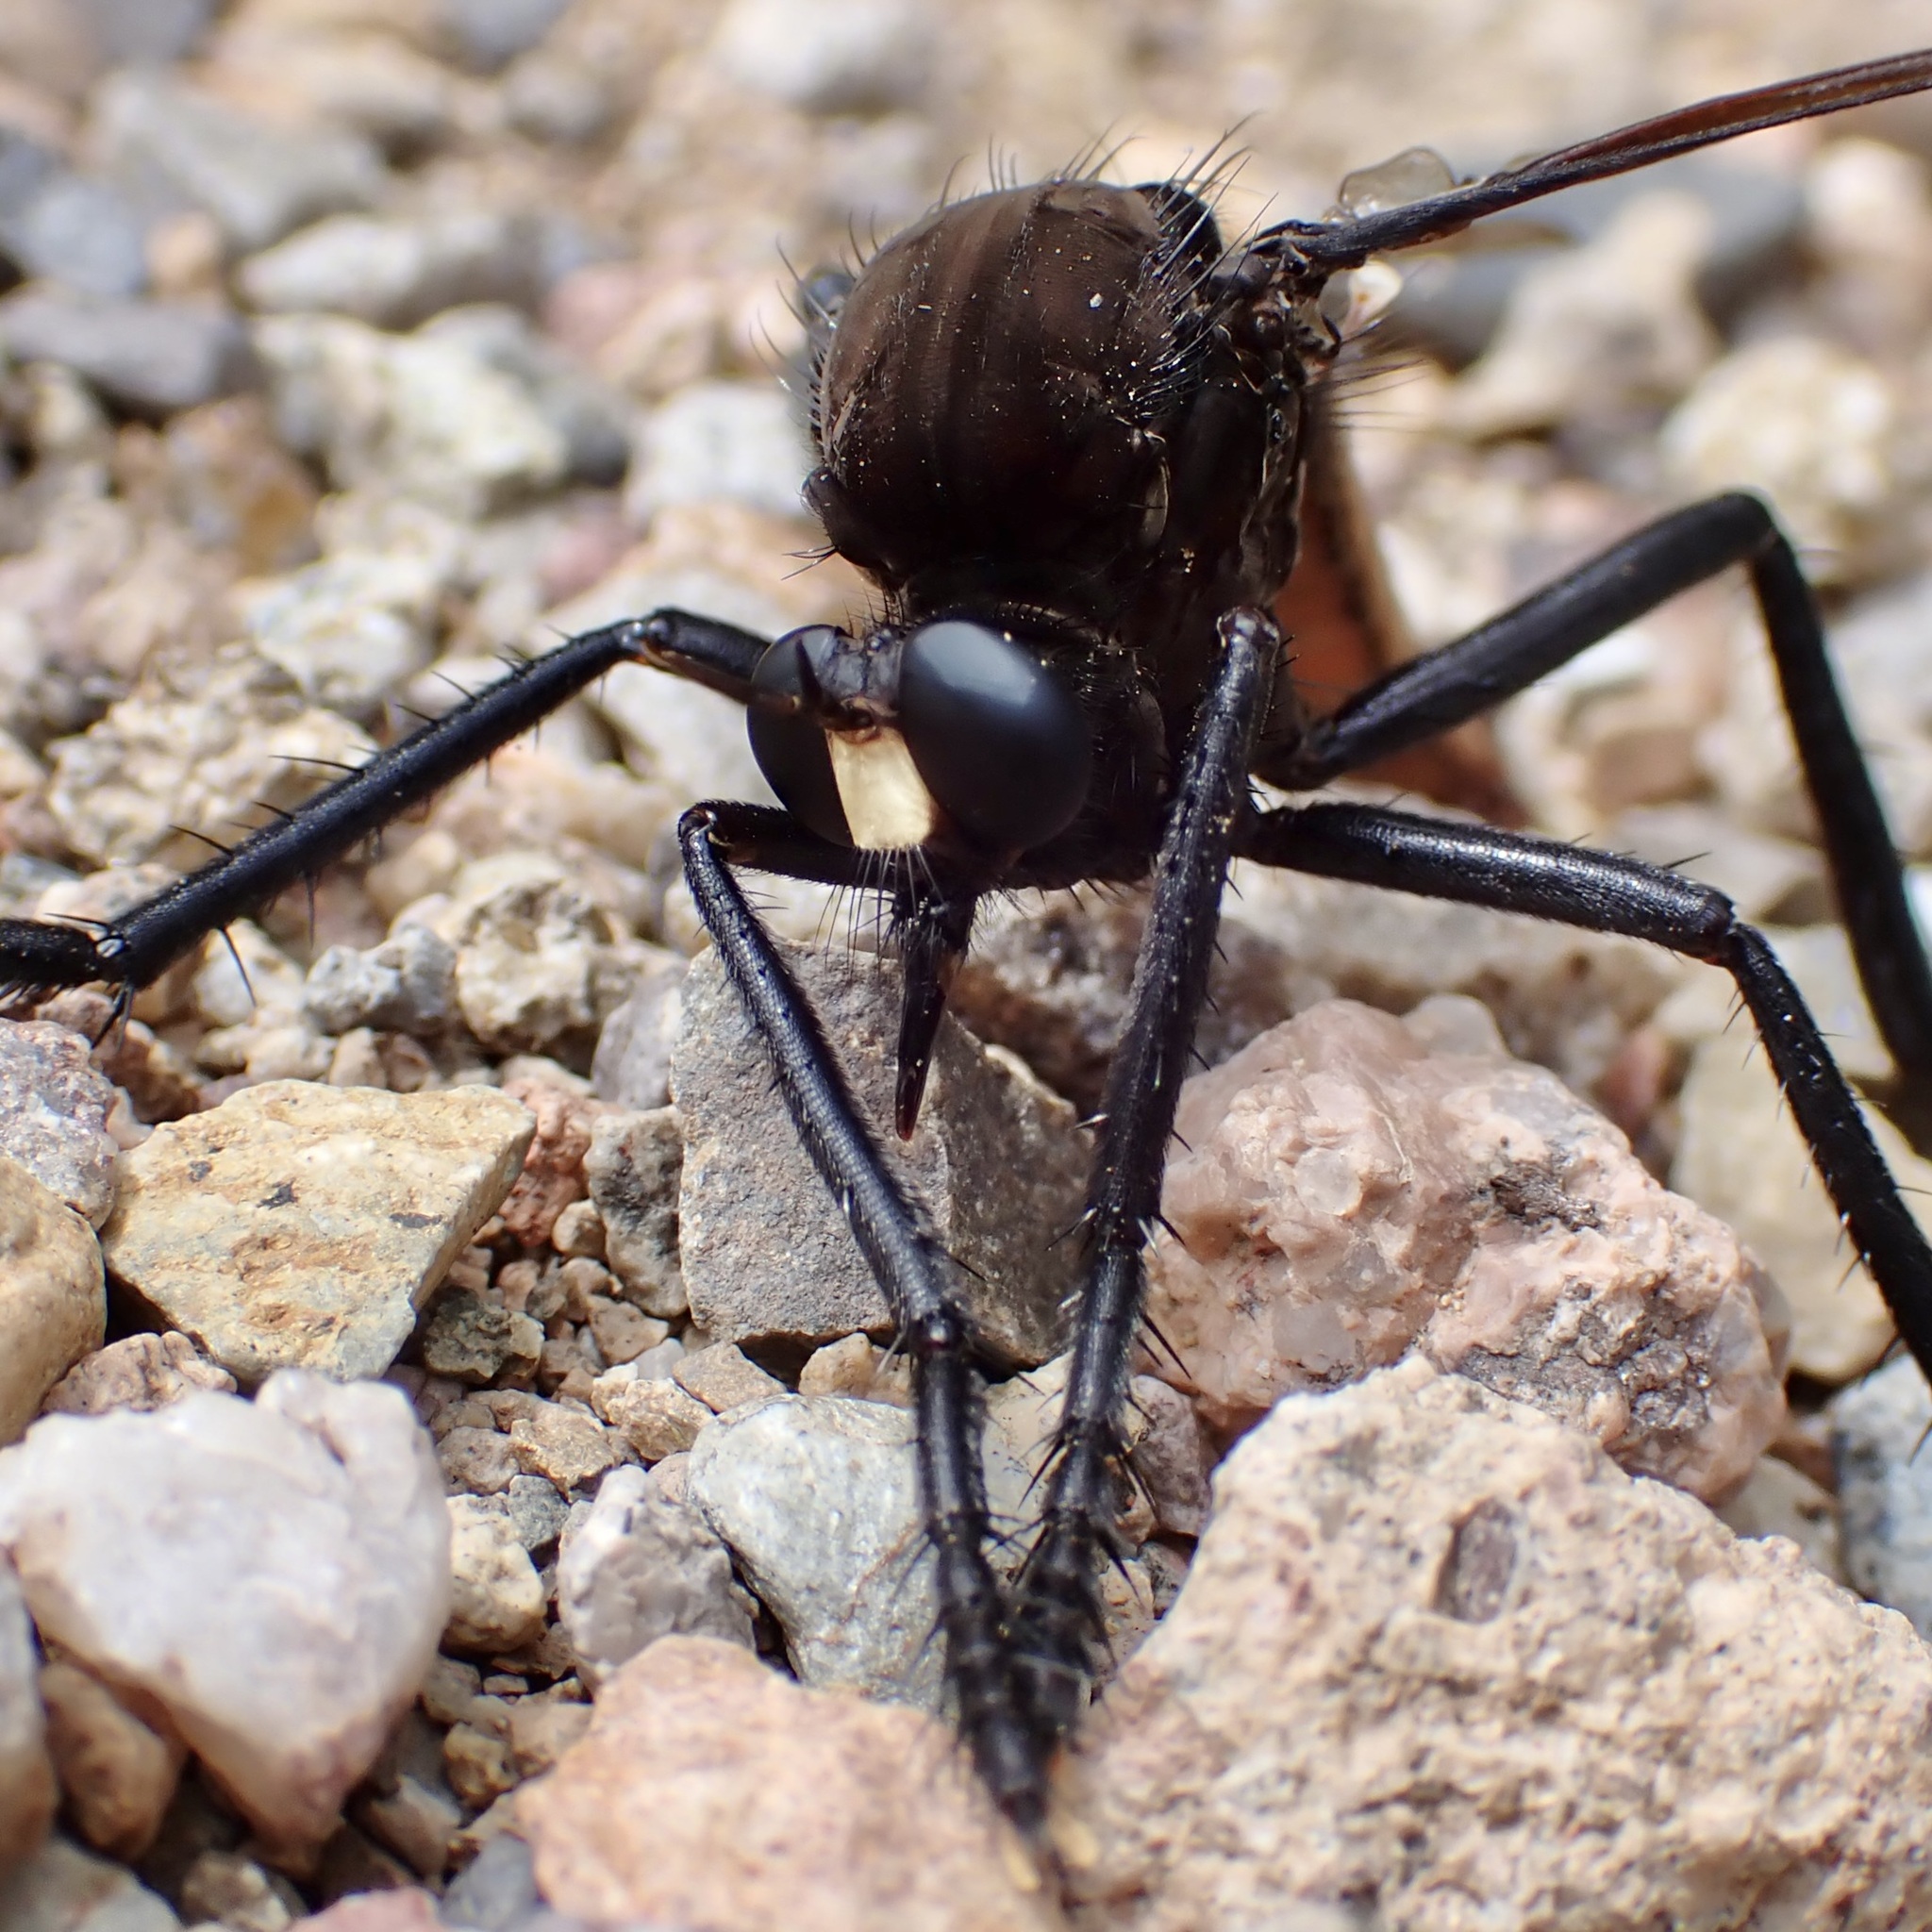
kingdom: Animalia
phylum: Arthropoda
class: Insecta
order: Diptera
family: Asilidae
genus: Archilestris
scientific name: Archilestris magnificus
